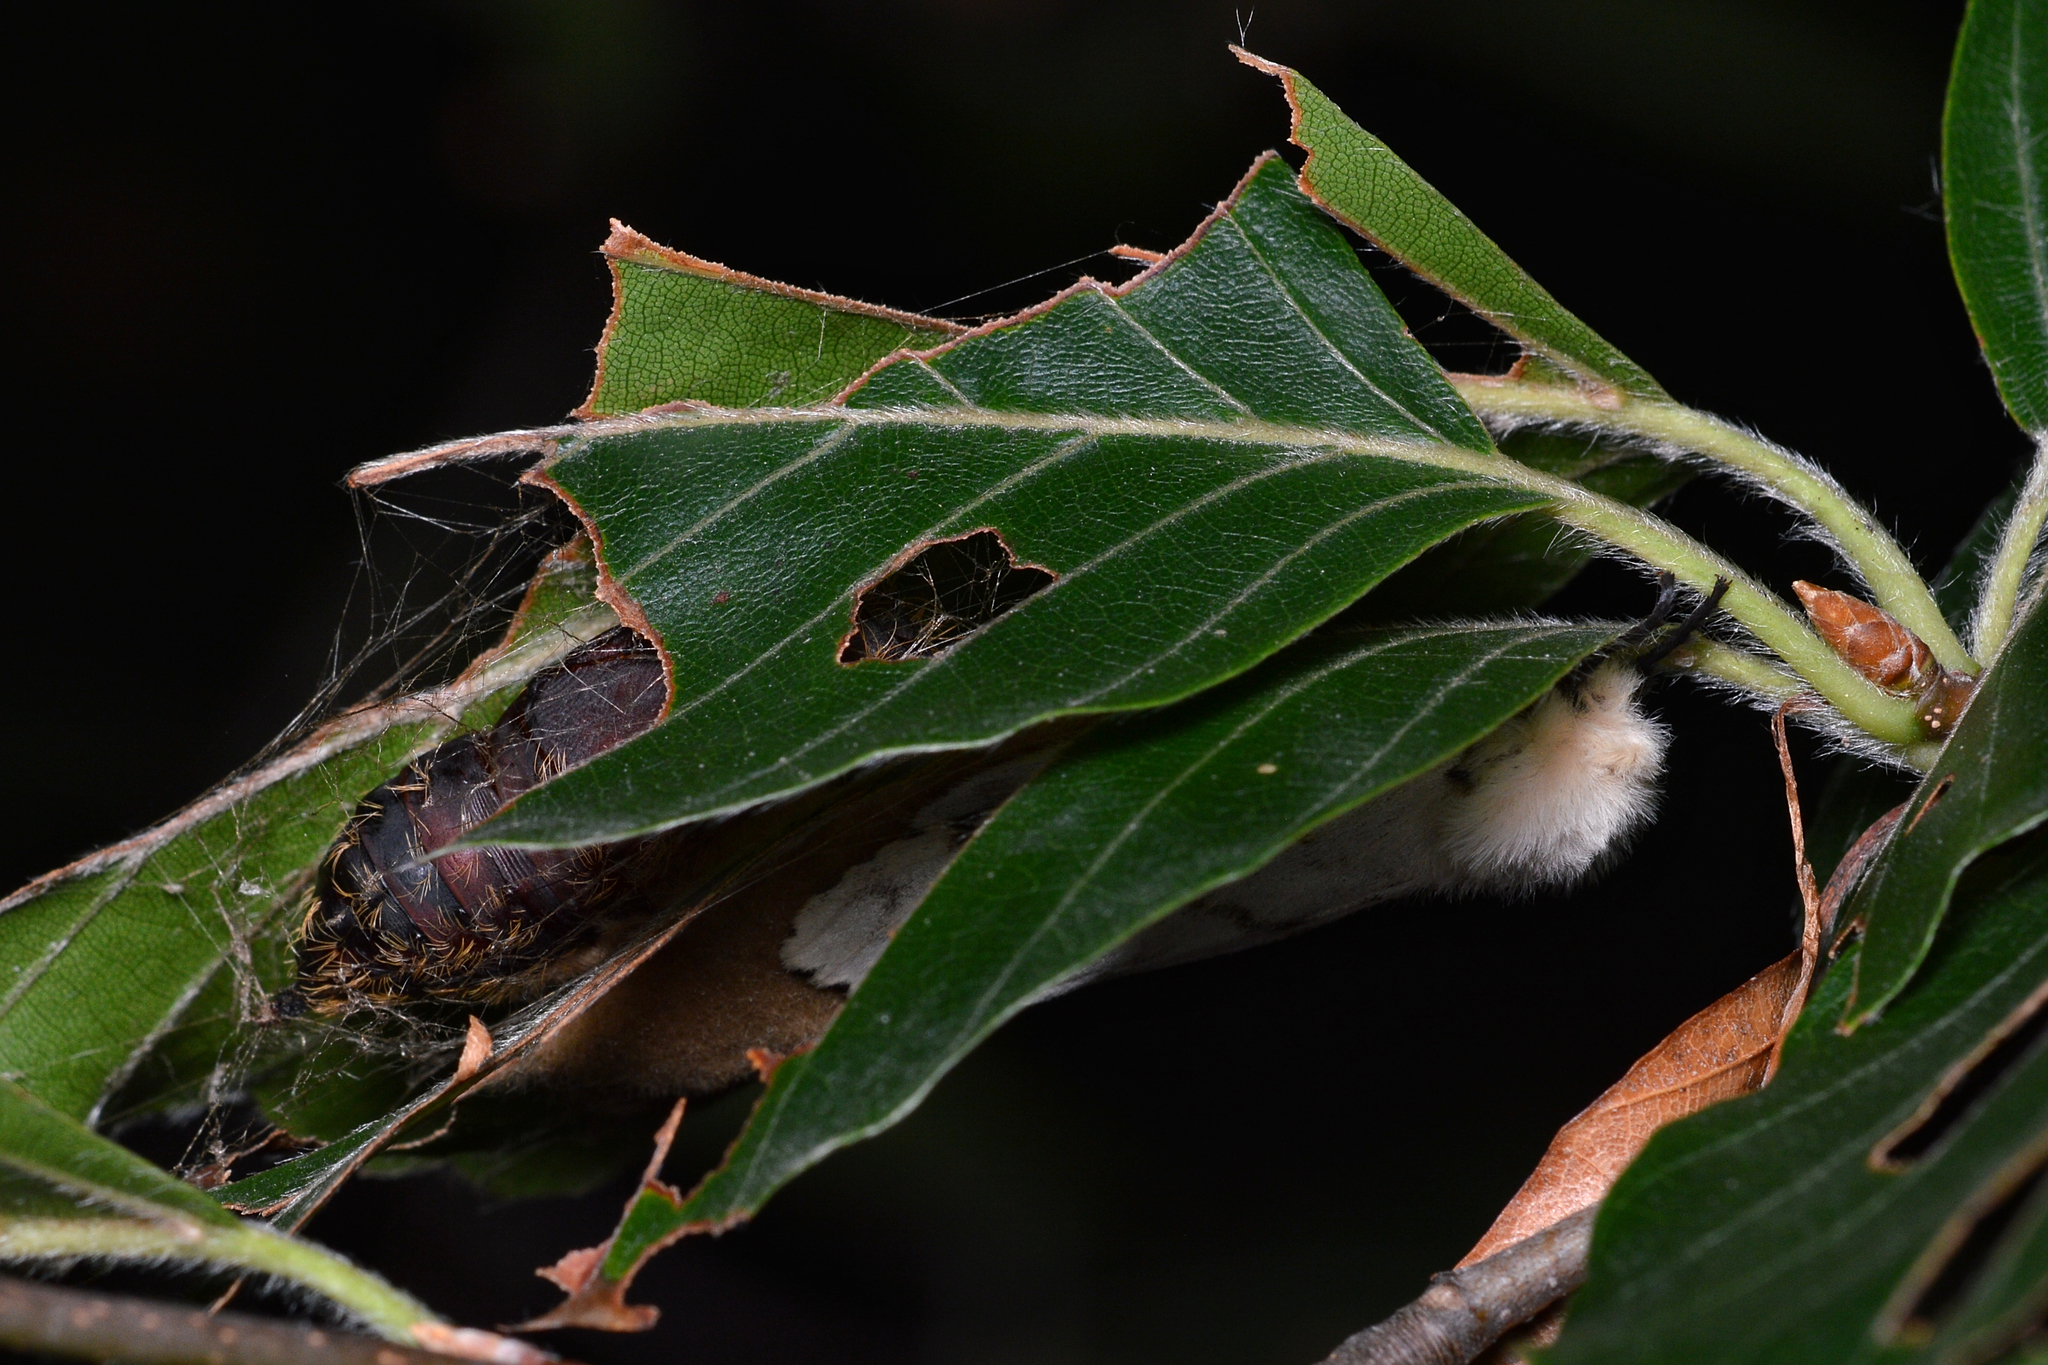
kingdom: Animalia
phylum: Arthropoda
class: Insecta
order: Lepidoptera
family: Erebidae
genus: Lymantria
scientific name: Lymantria dispar
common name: Gypsy moth
